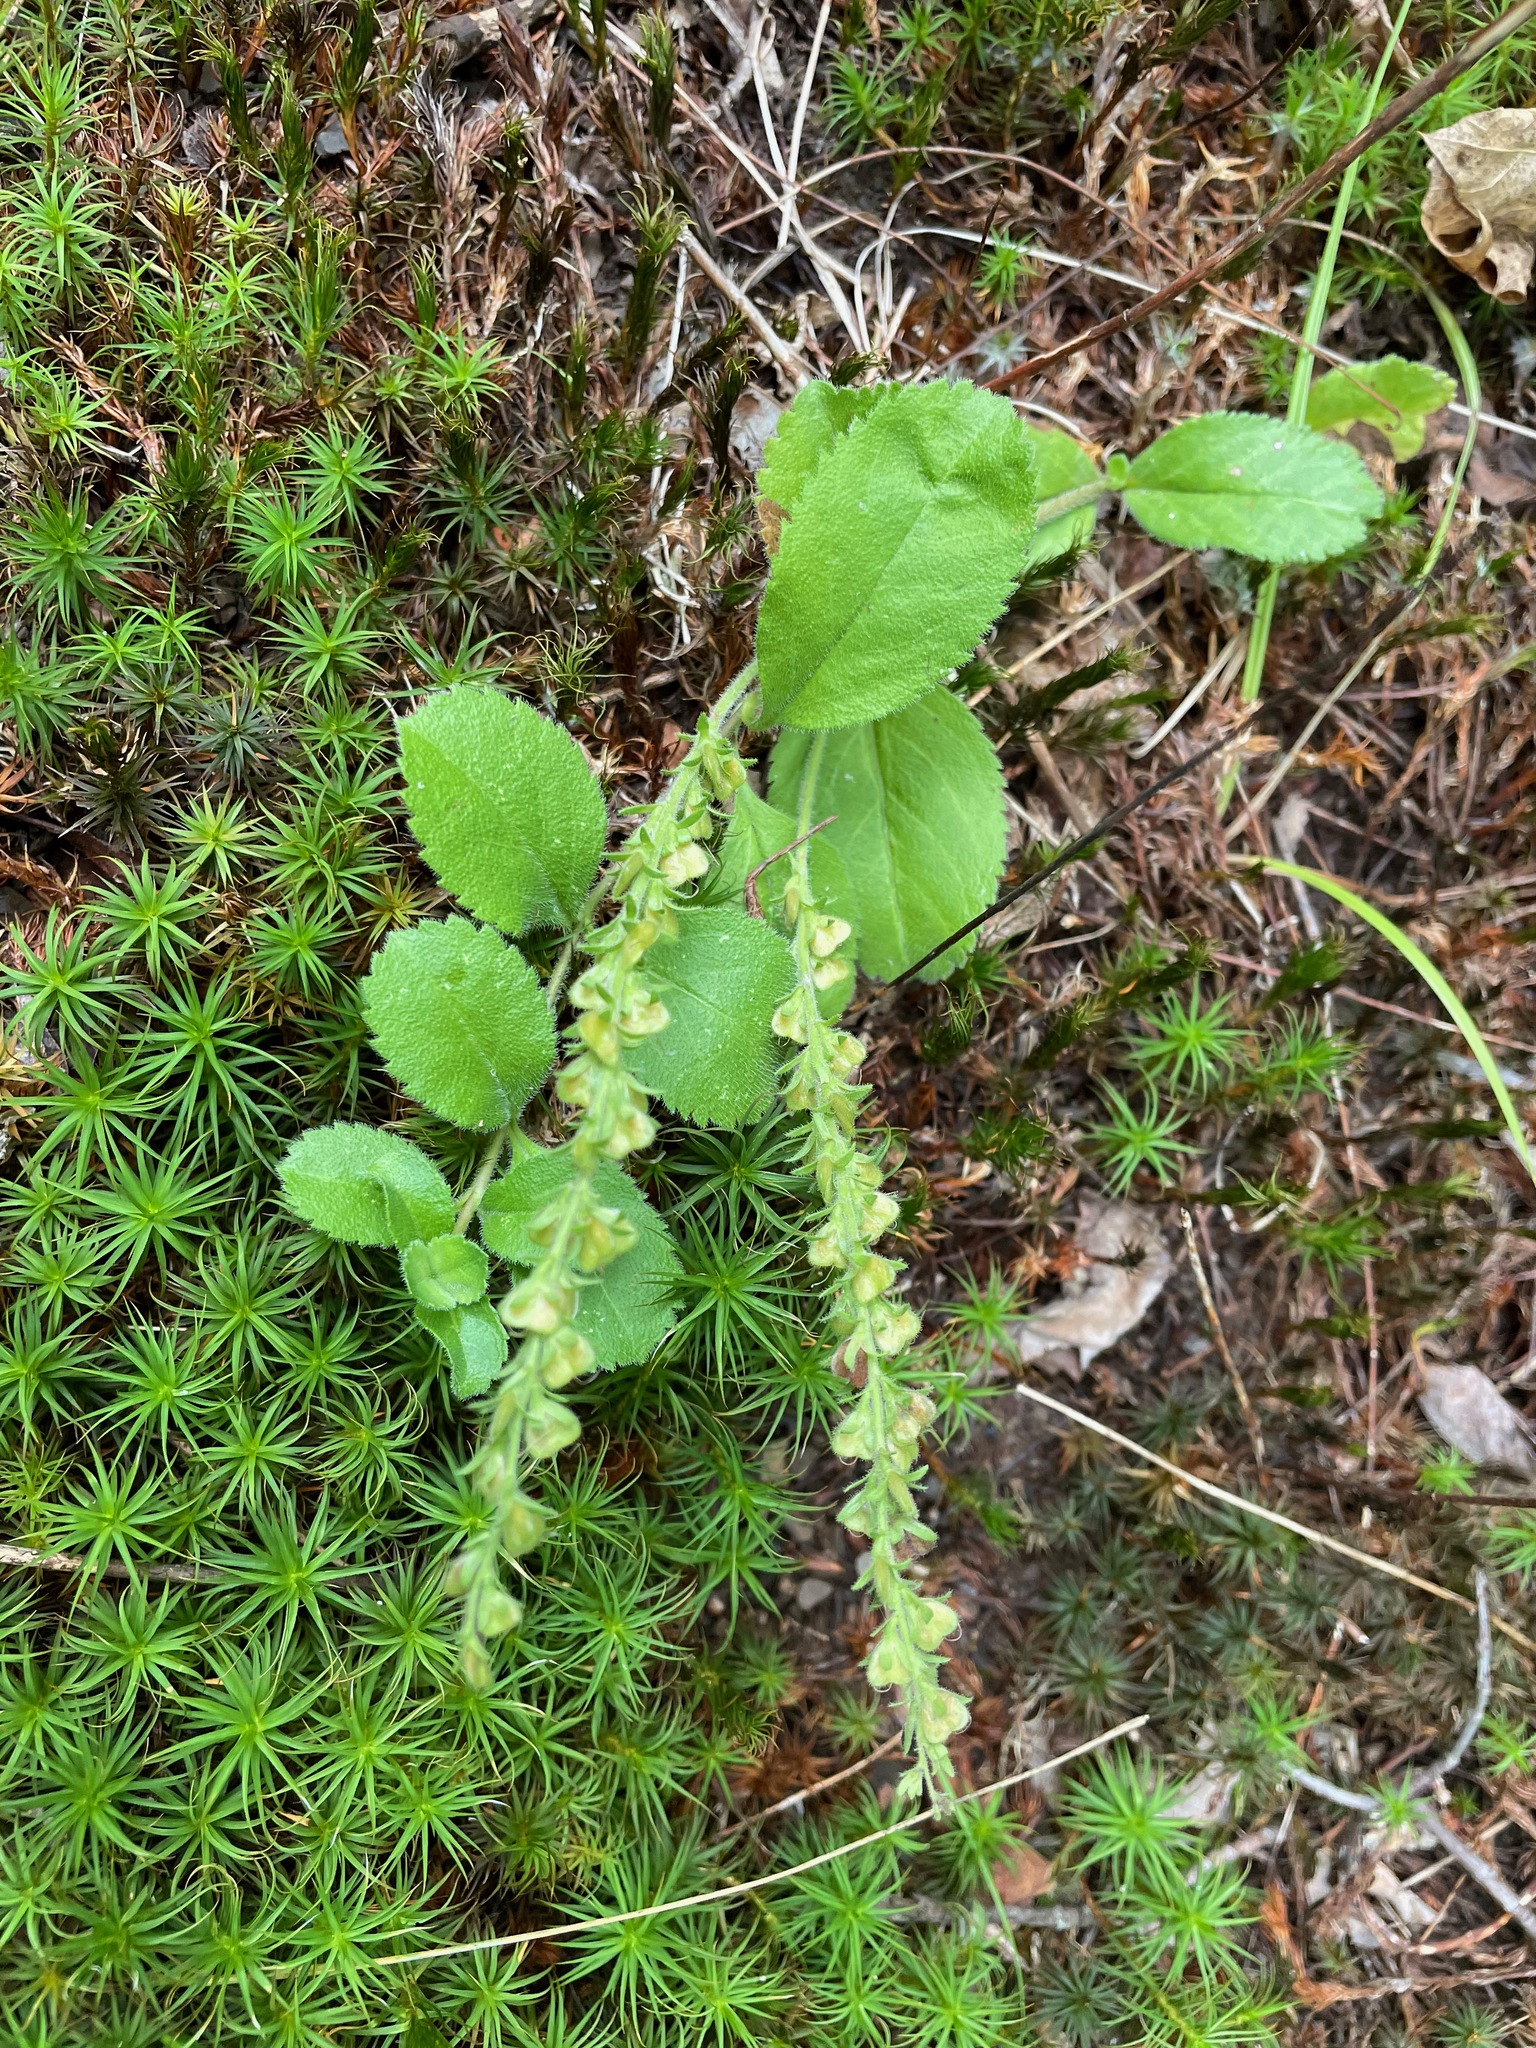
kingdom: Plantae
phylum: Tracheophyta
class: Magnoliopsida
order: Lamiales
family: Plantaginaceae
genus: Veronica
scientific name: Veronica officinalis
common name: Common speedwell
